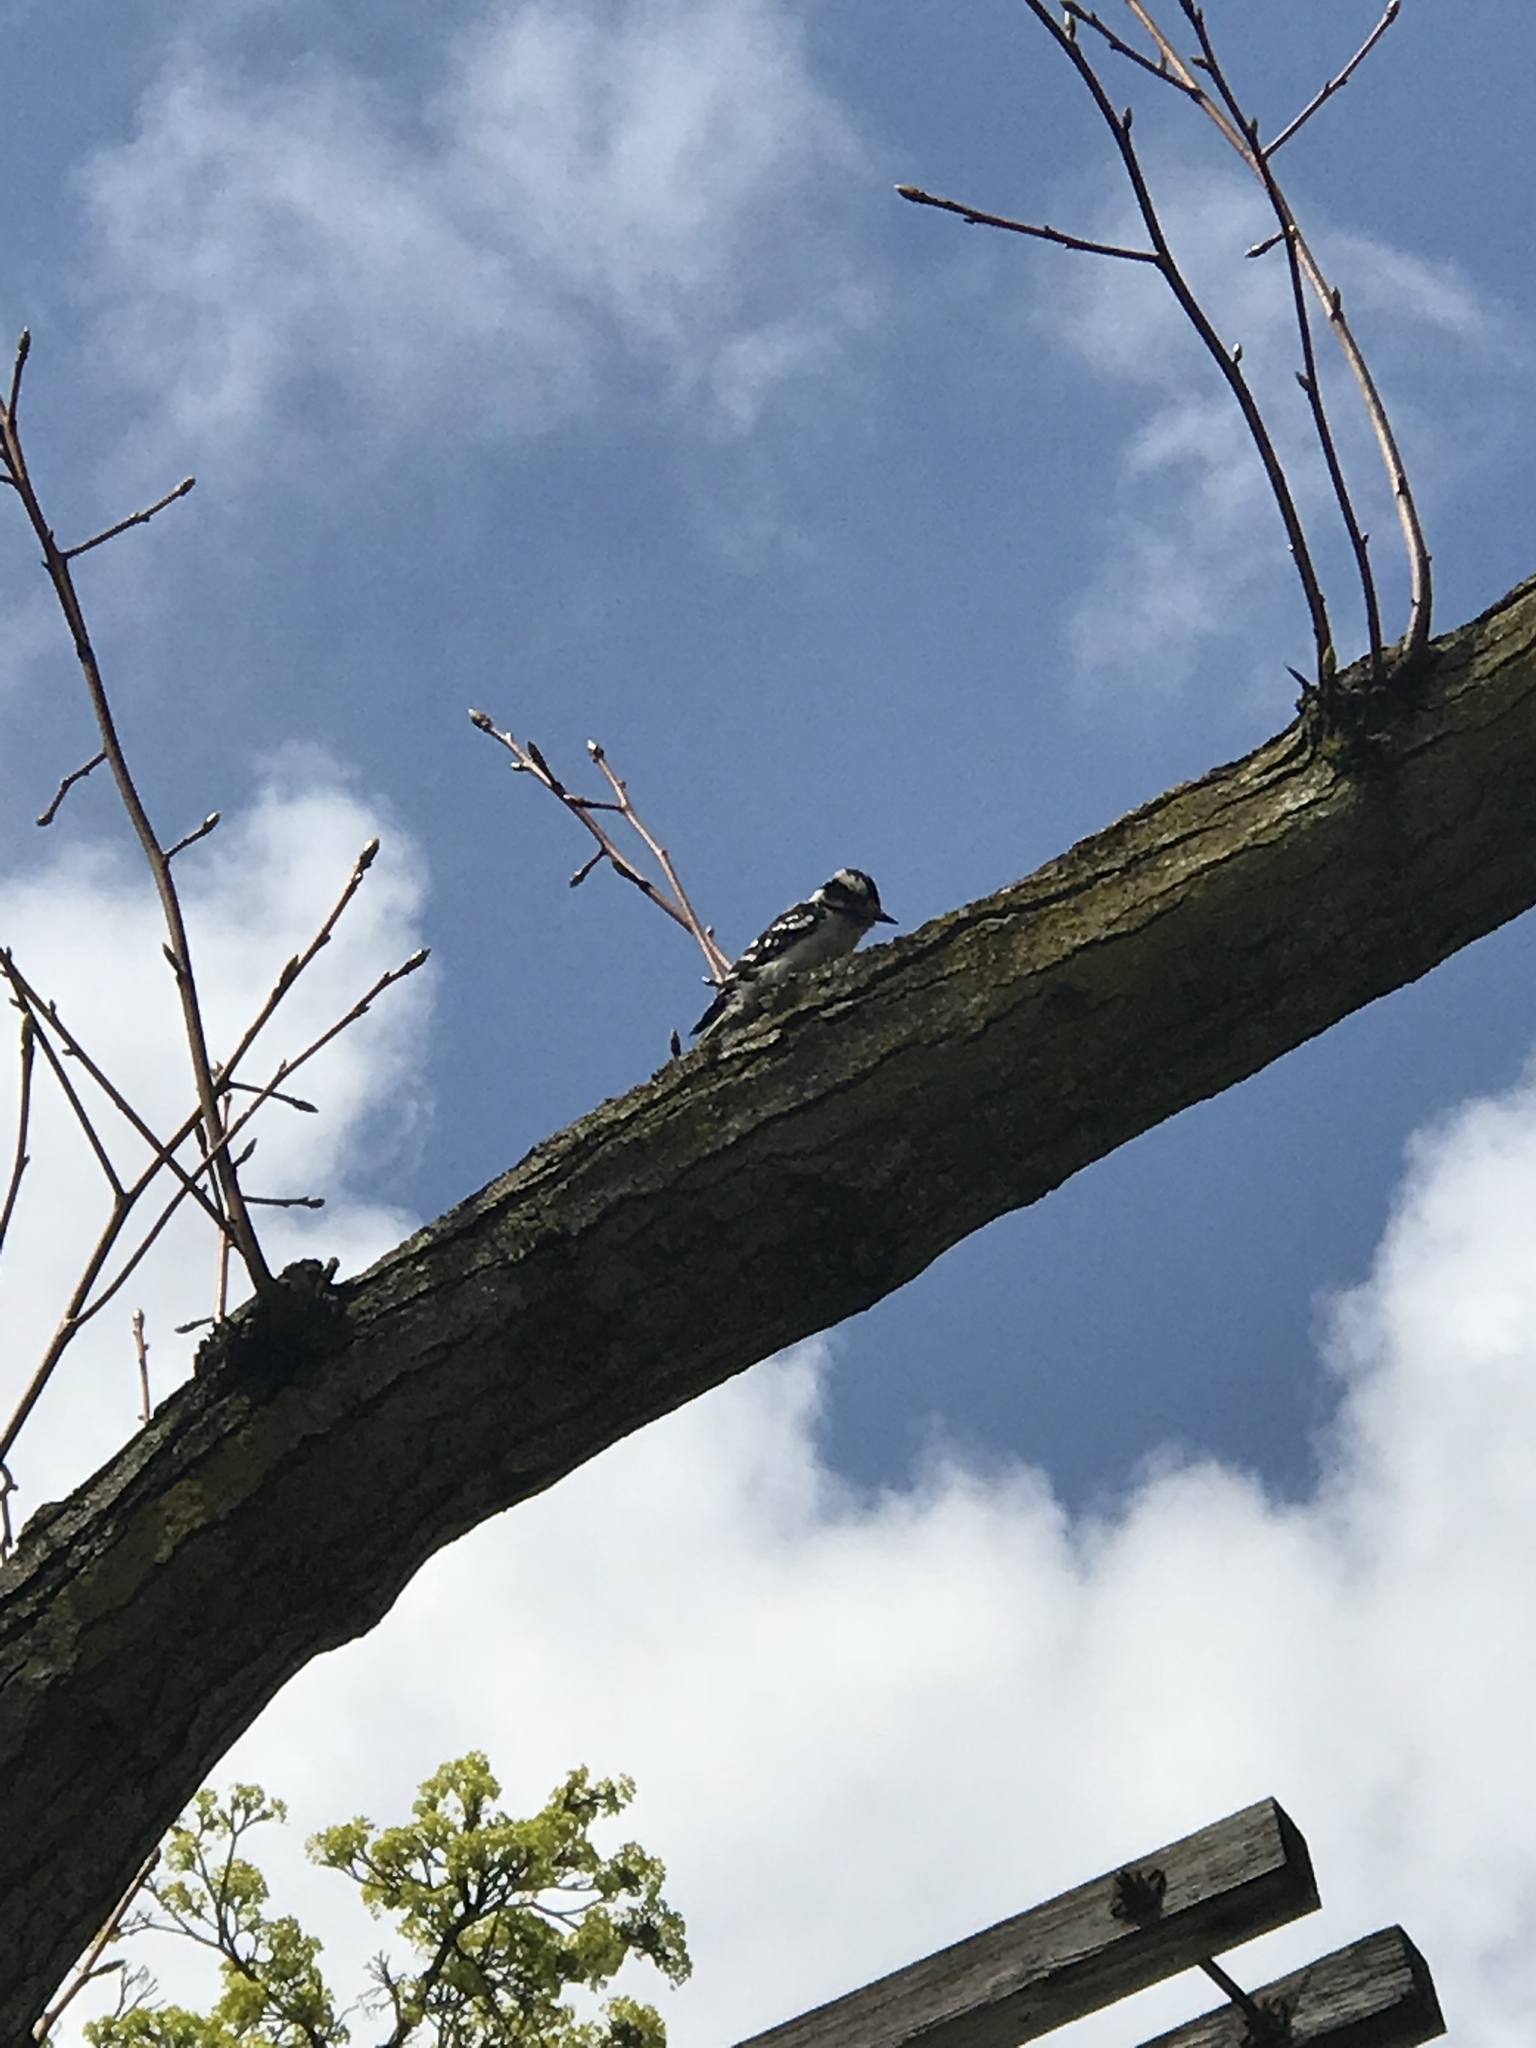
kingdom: Animalia
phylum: Chordata
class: Aves
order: Piciformes
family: Picidae
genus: Dryobates
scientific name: Dryobates pubescens
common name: Downy woodpecker
